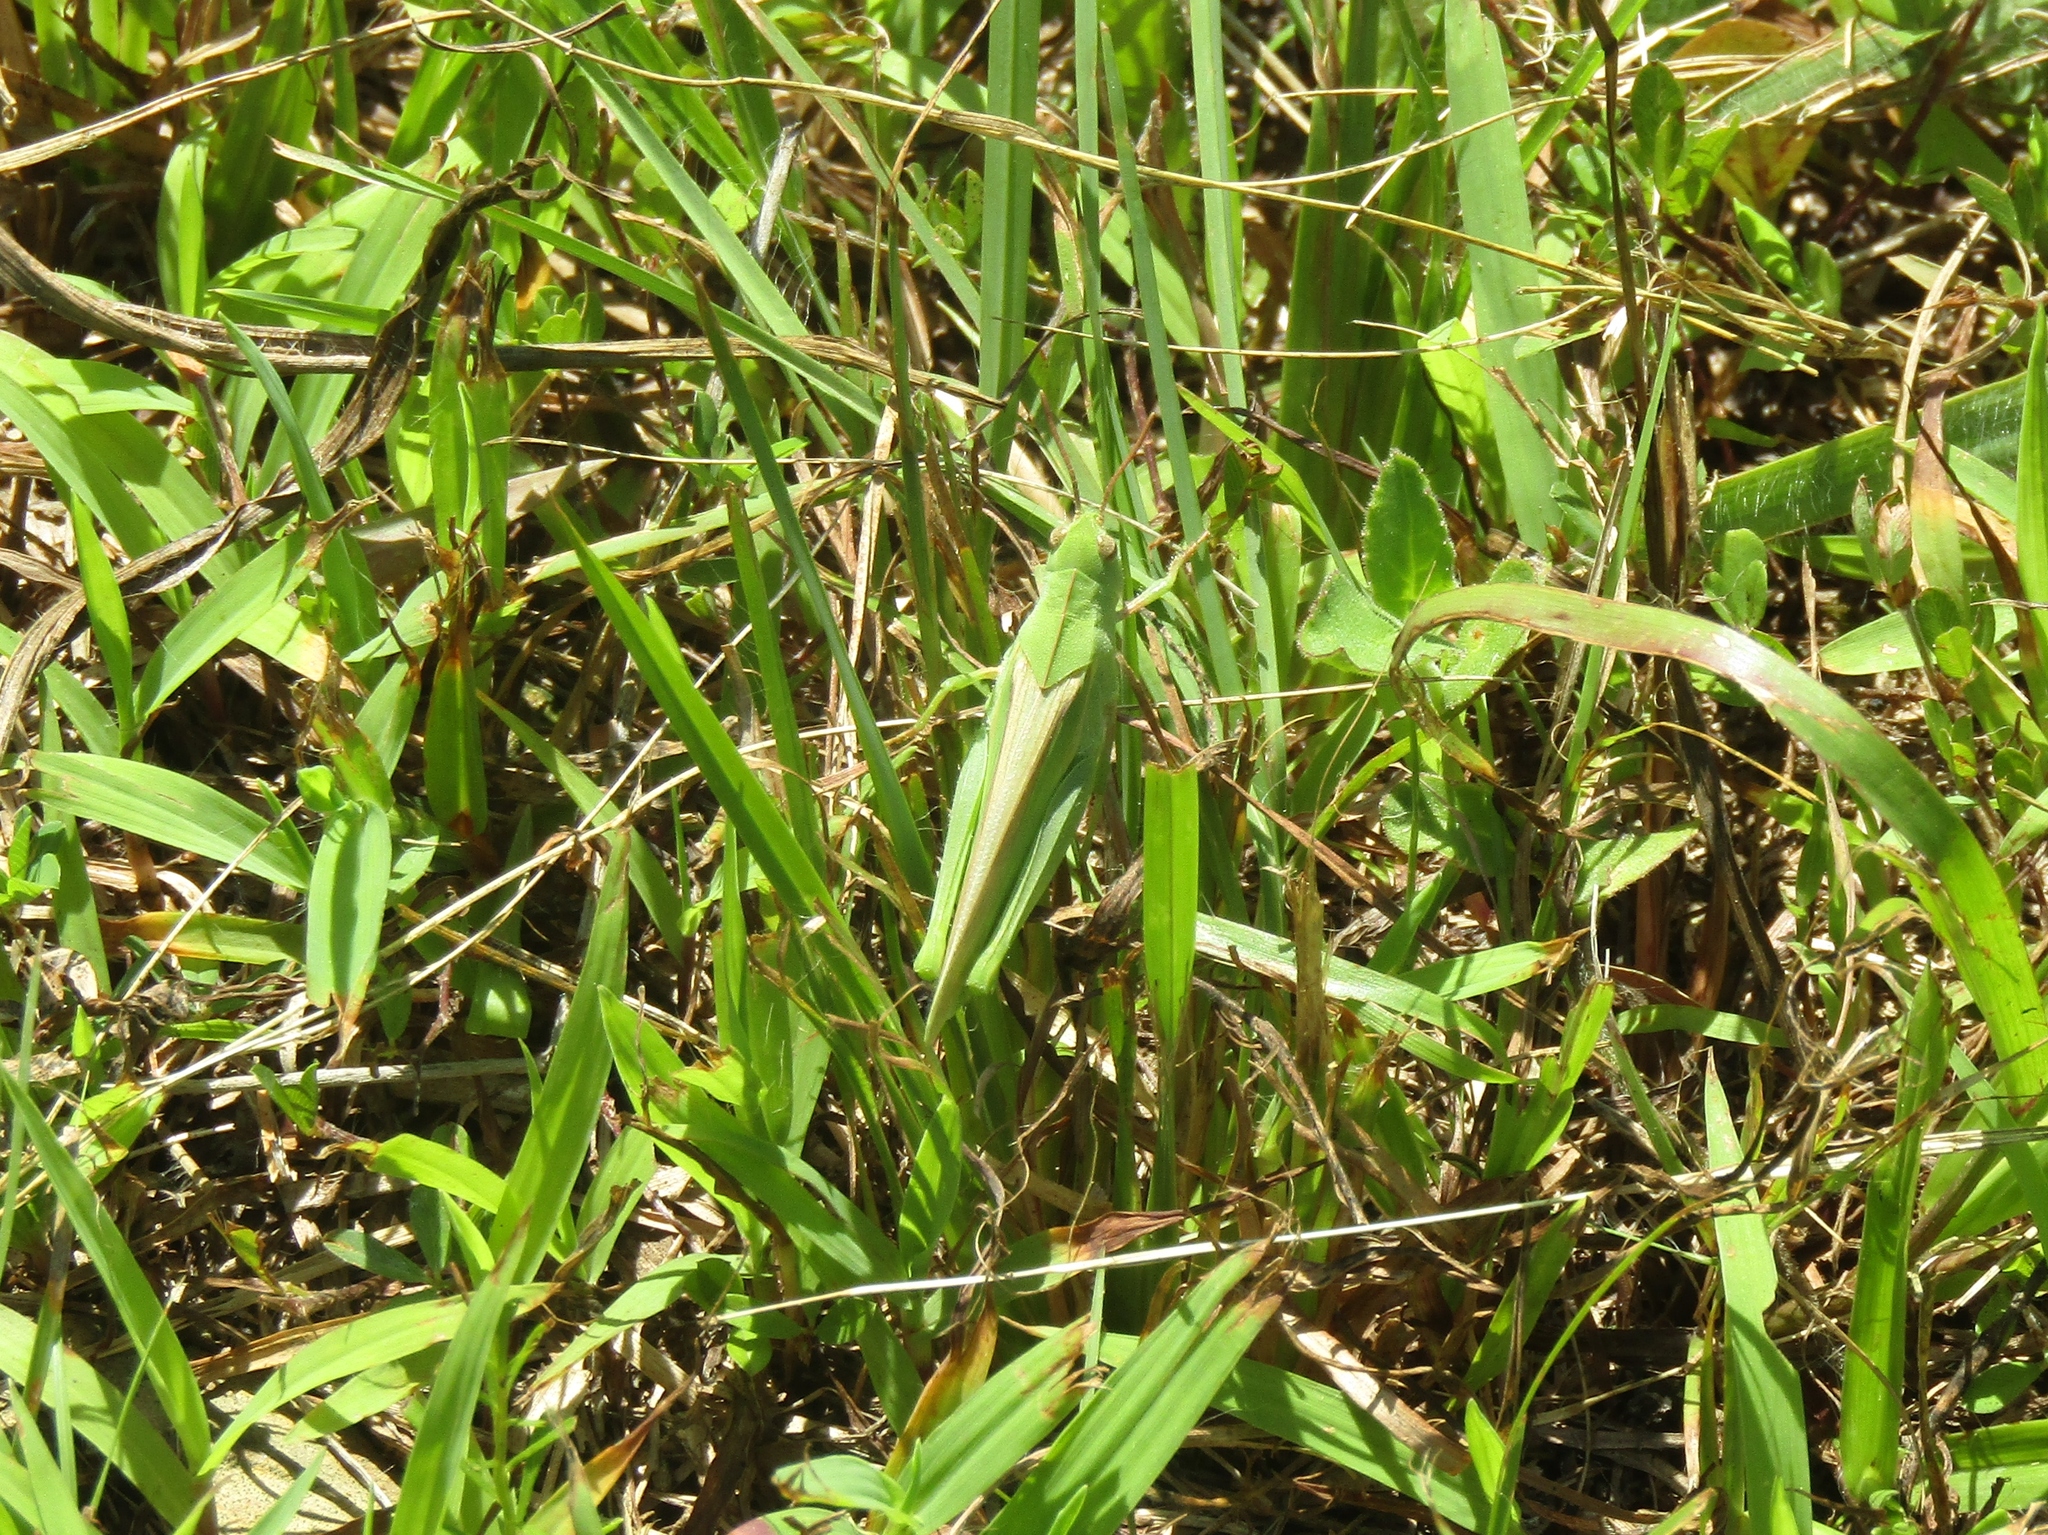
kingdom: Animalia
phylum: Arthropoda
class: Insecta
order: Orthoptera
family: Acrididae
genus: Chortophaga
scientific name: Chortophaga viridifasciata
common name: Green-striped grasshopper
